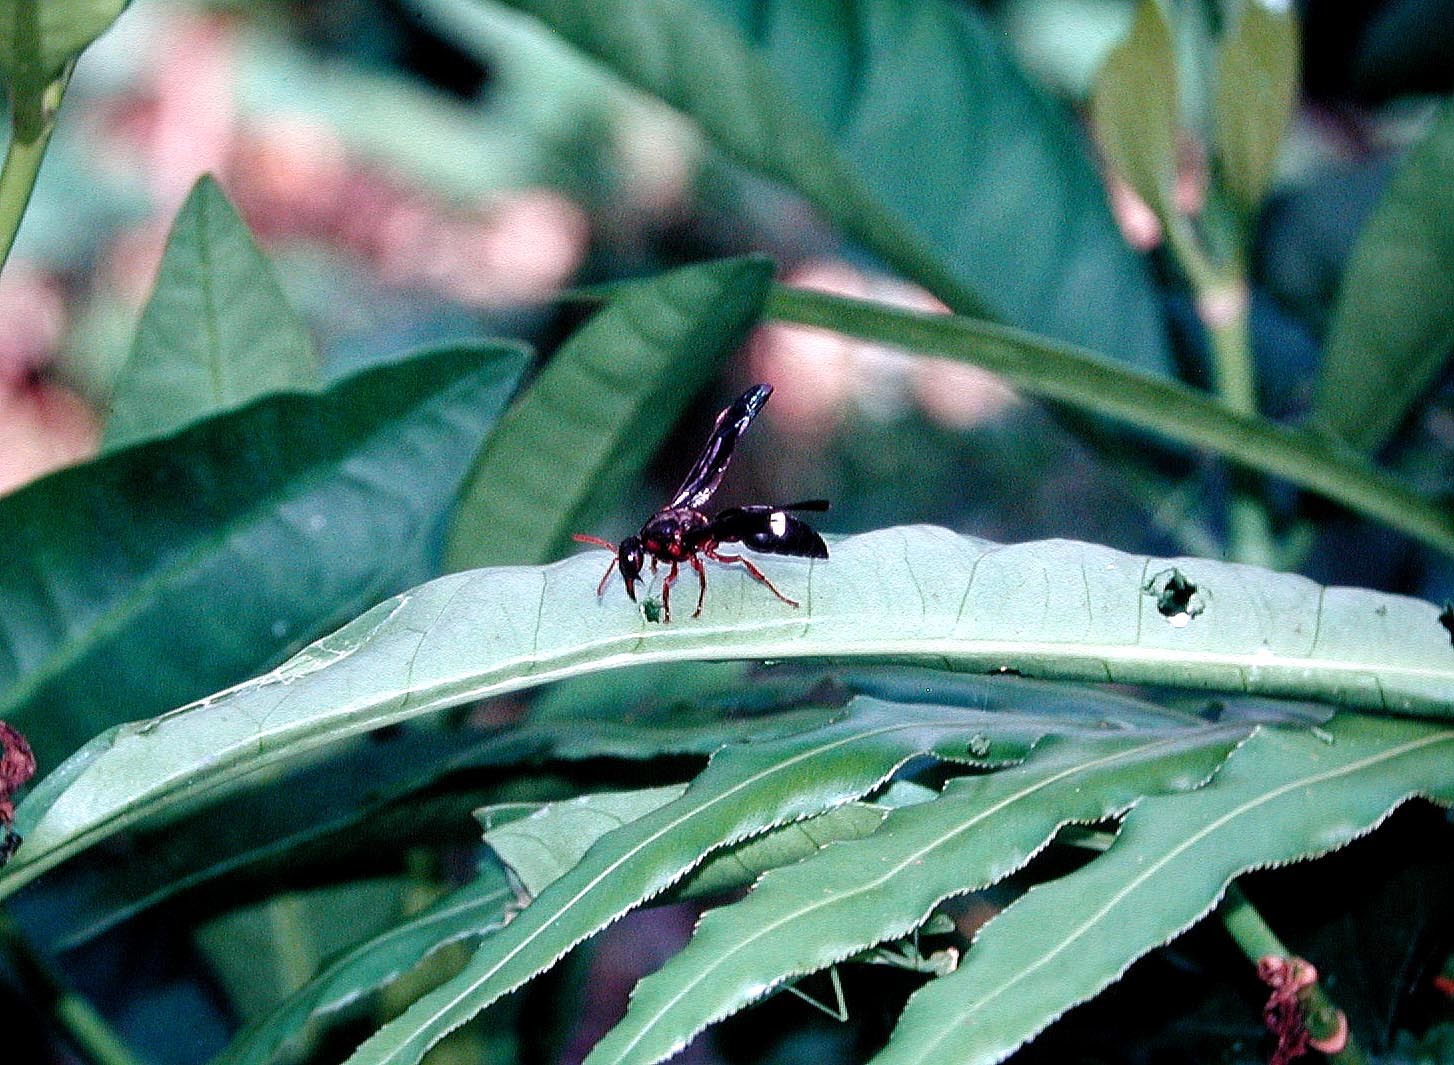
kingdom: Animalia
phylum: Arthropoda
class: Insecta
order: Hymenoptera
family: Eumenidae
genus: Anterhynchium
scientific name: Anterhynchium grayi
